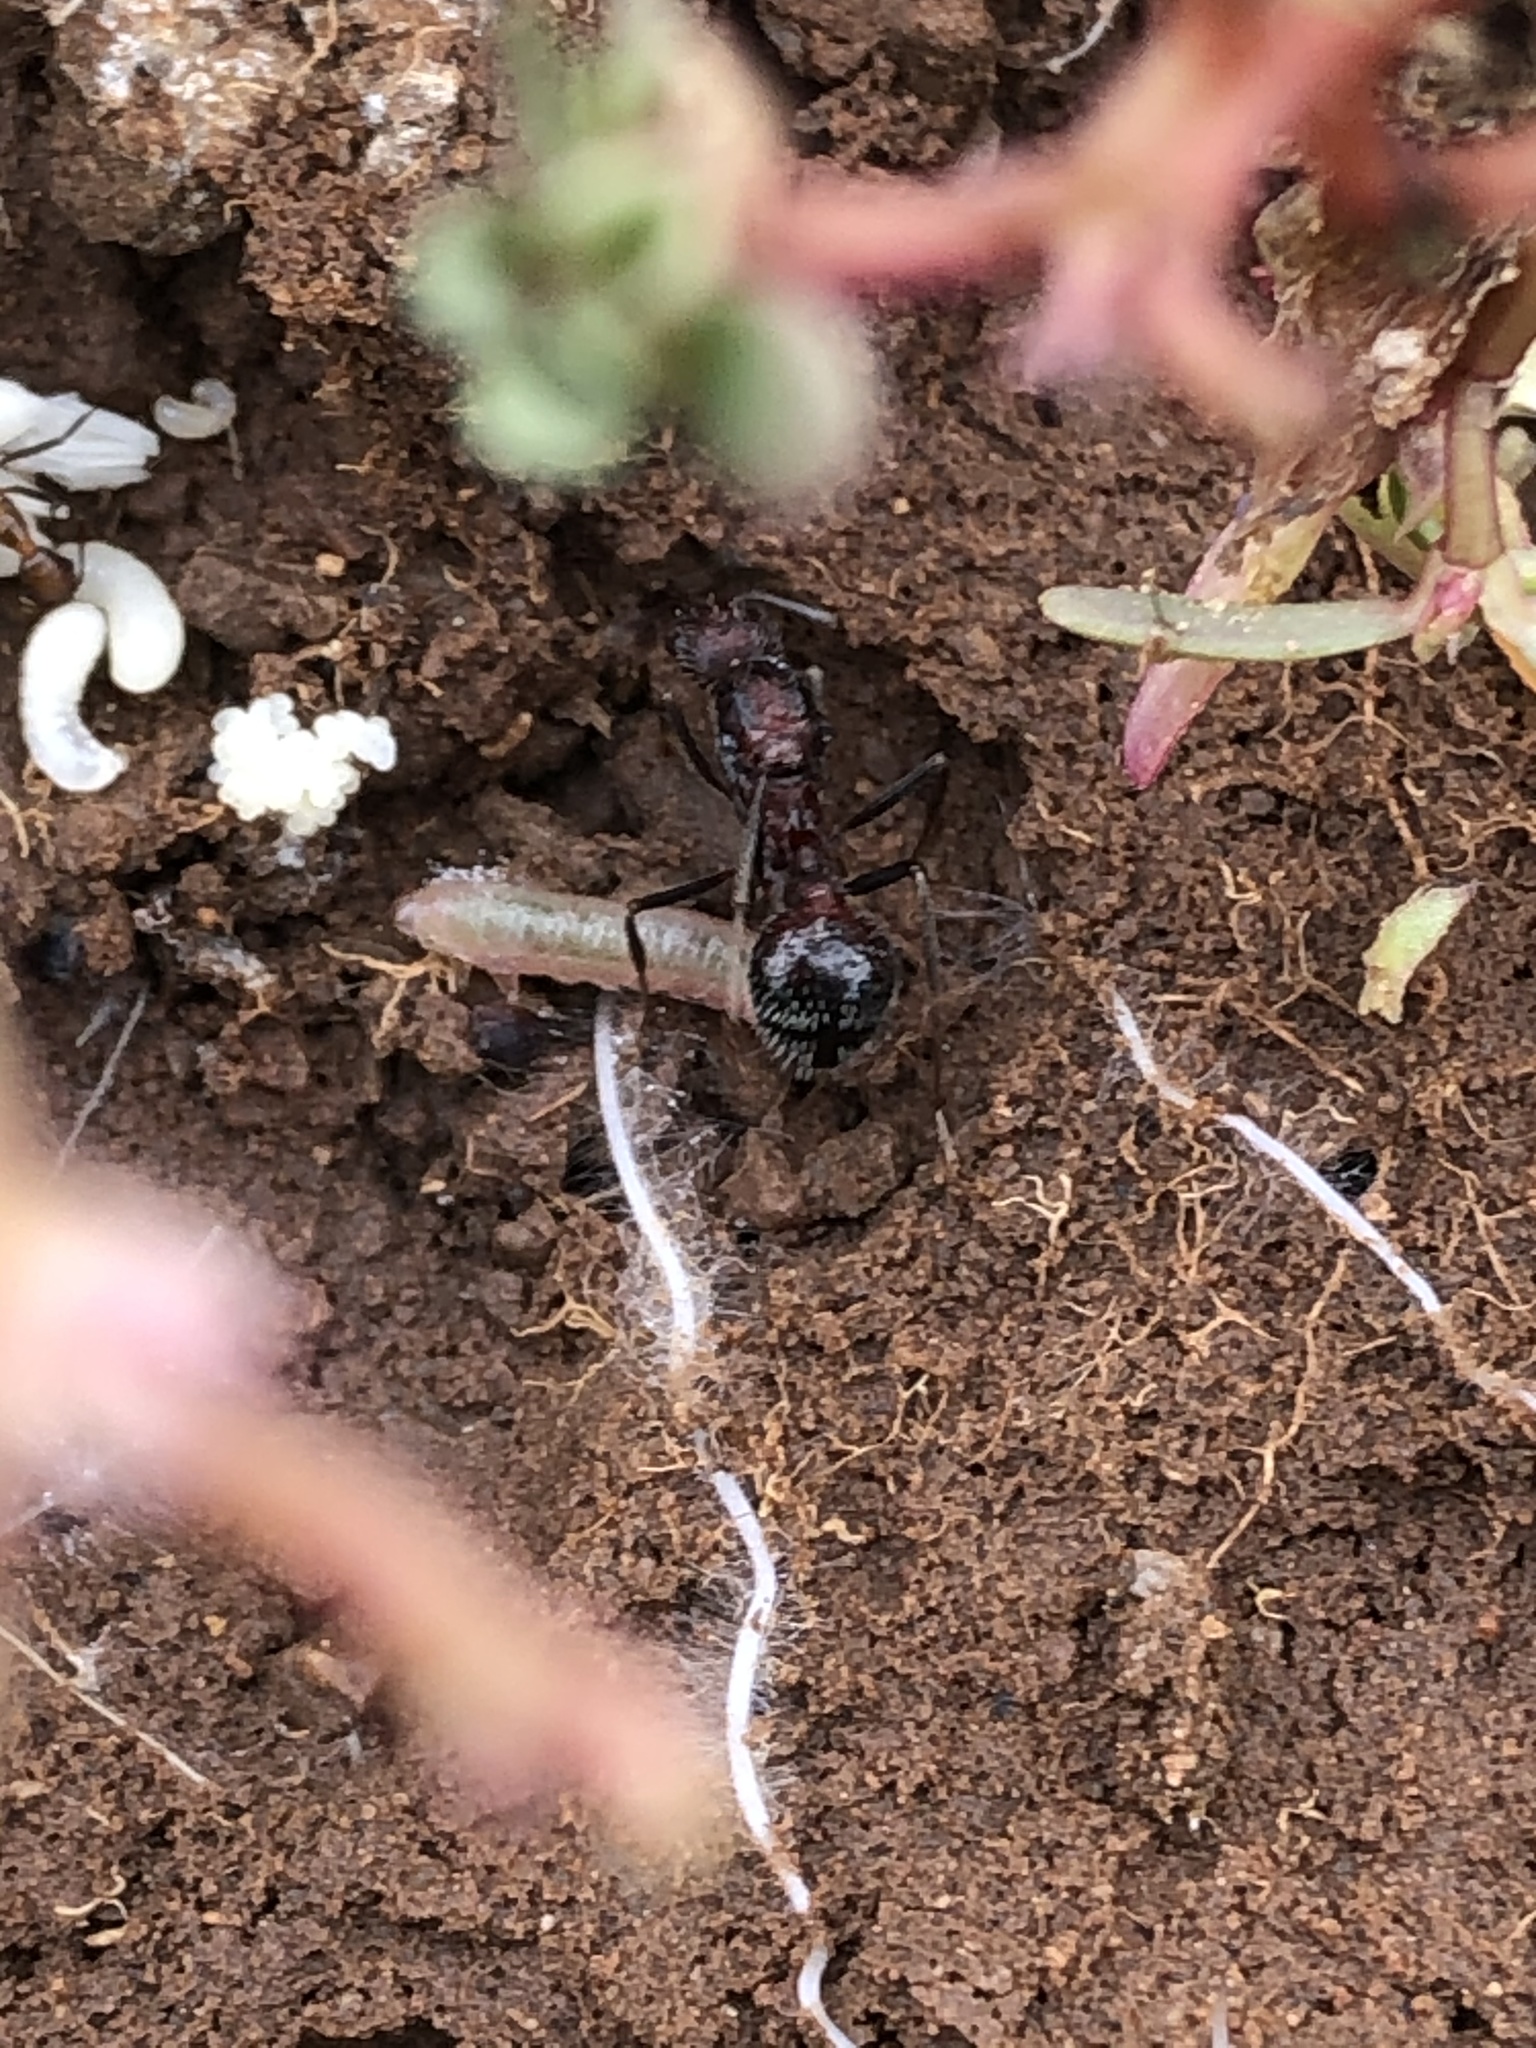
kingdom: Animalia
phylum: Arthropoda
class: Insecta
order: Hymenoptera
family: Formicidae
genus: Novomessor
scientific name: Novomessor cockerelli
